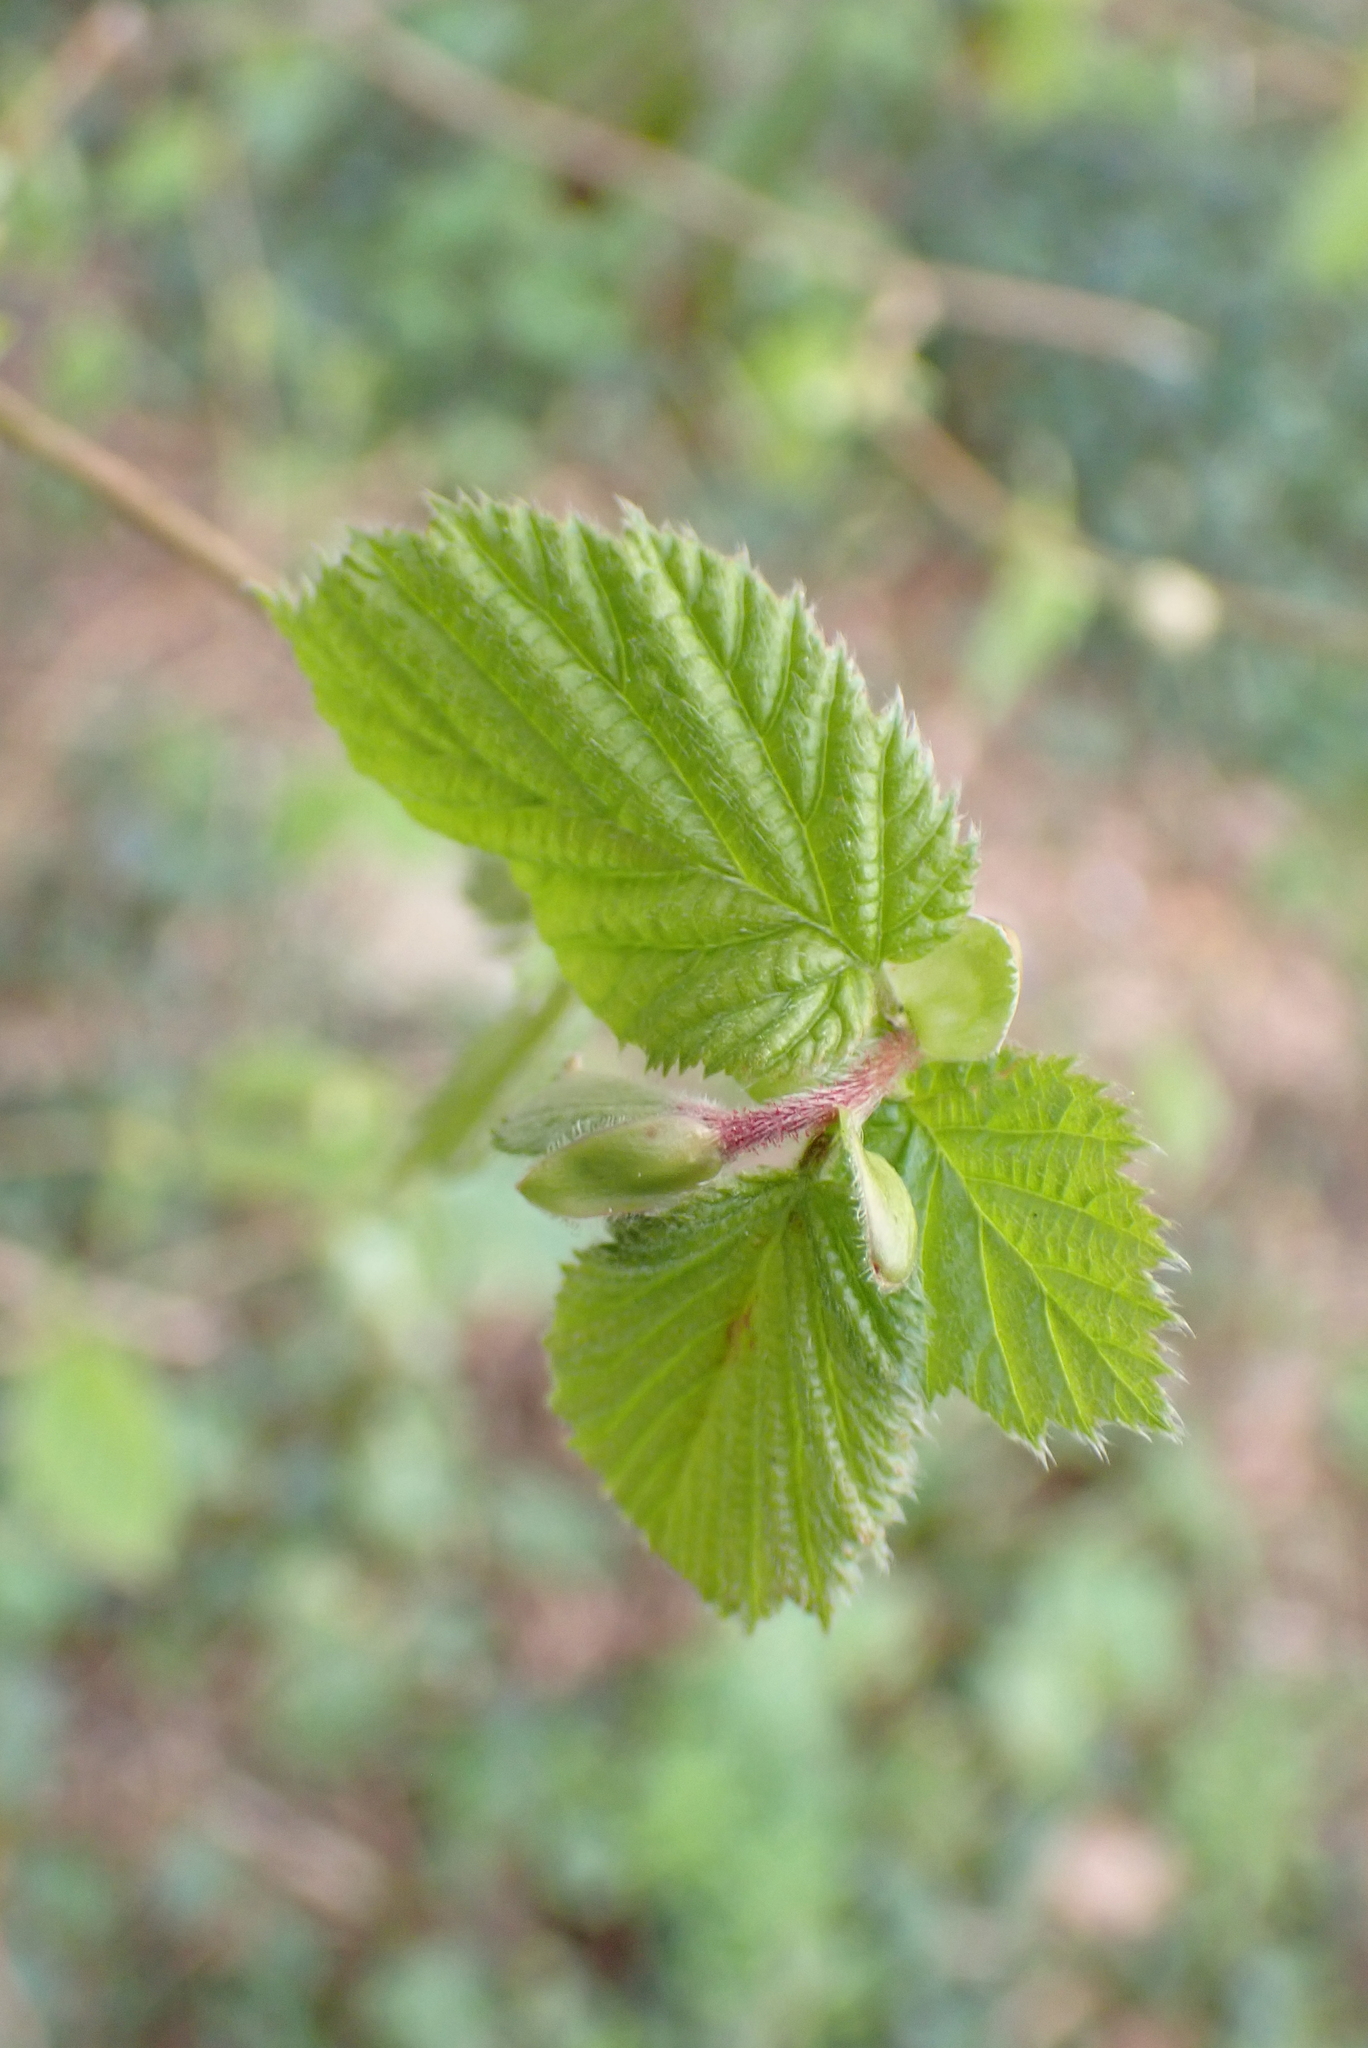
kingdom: Plantae
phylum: Tracheophyta
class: Magnoliopsida
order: Fagales
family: Betulaceae
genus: Corylus
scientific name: Corylus avellana
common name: European hazel
